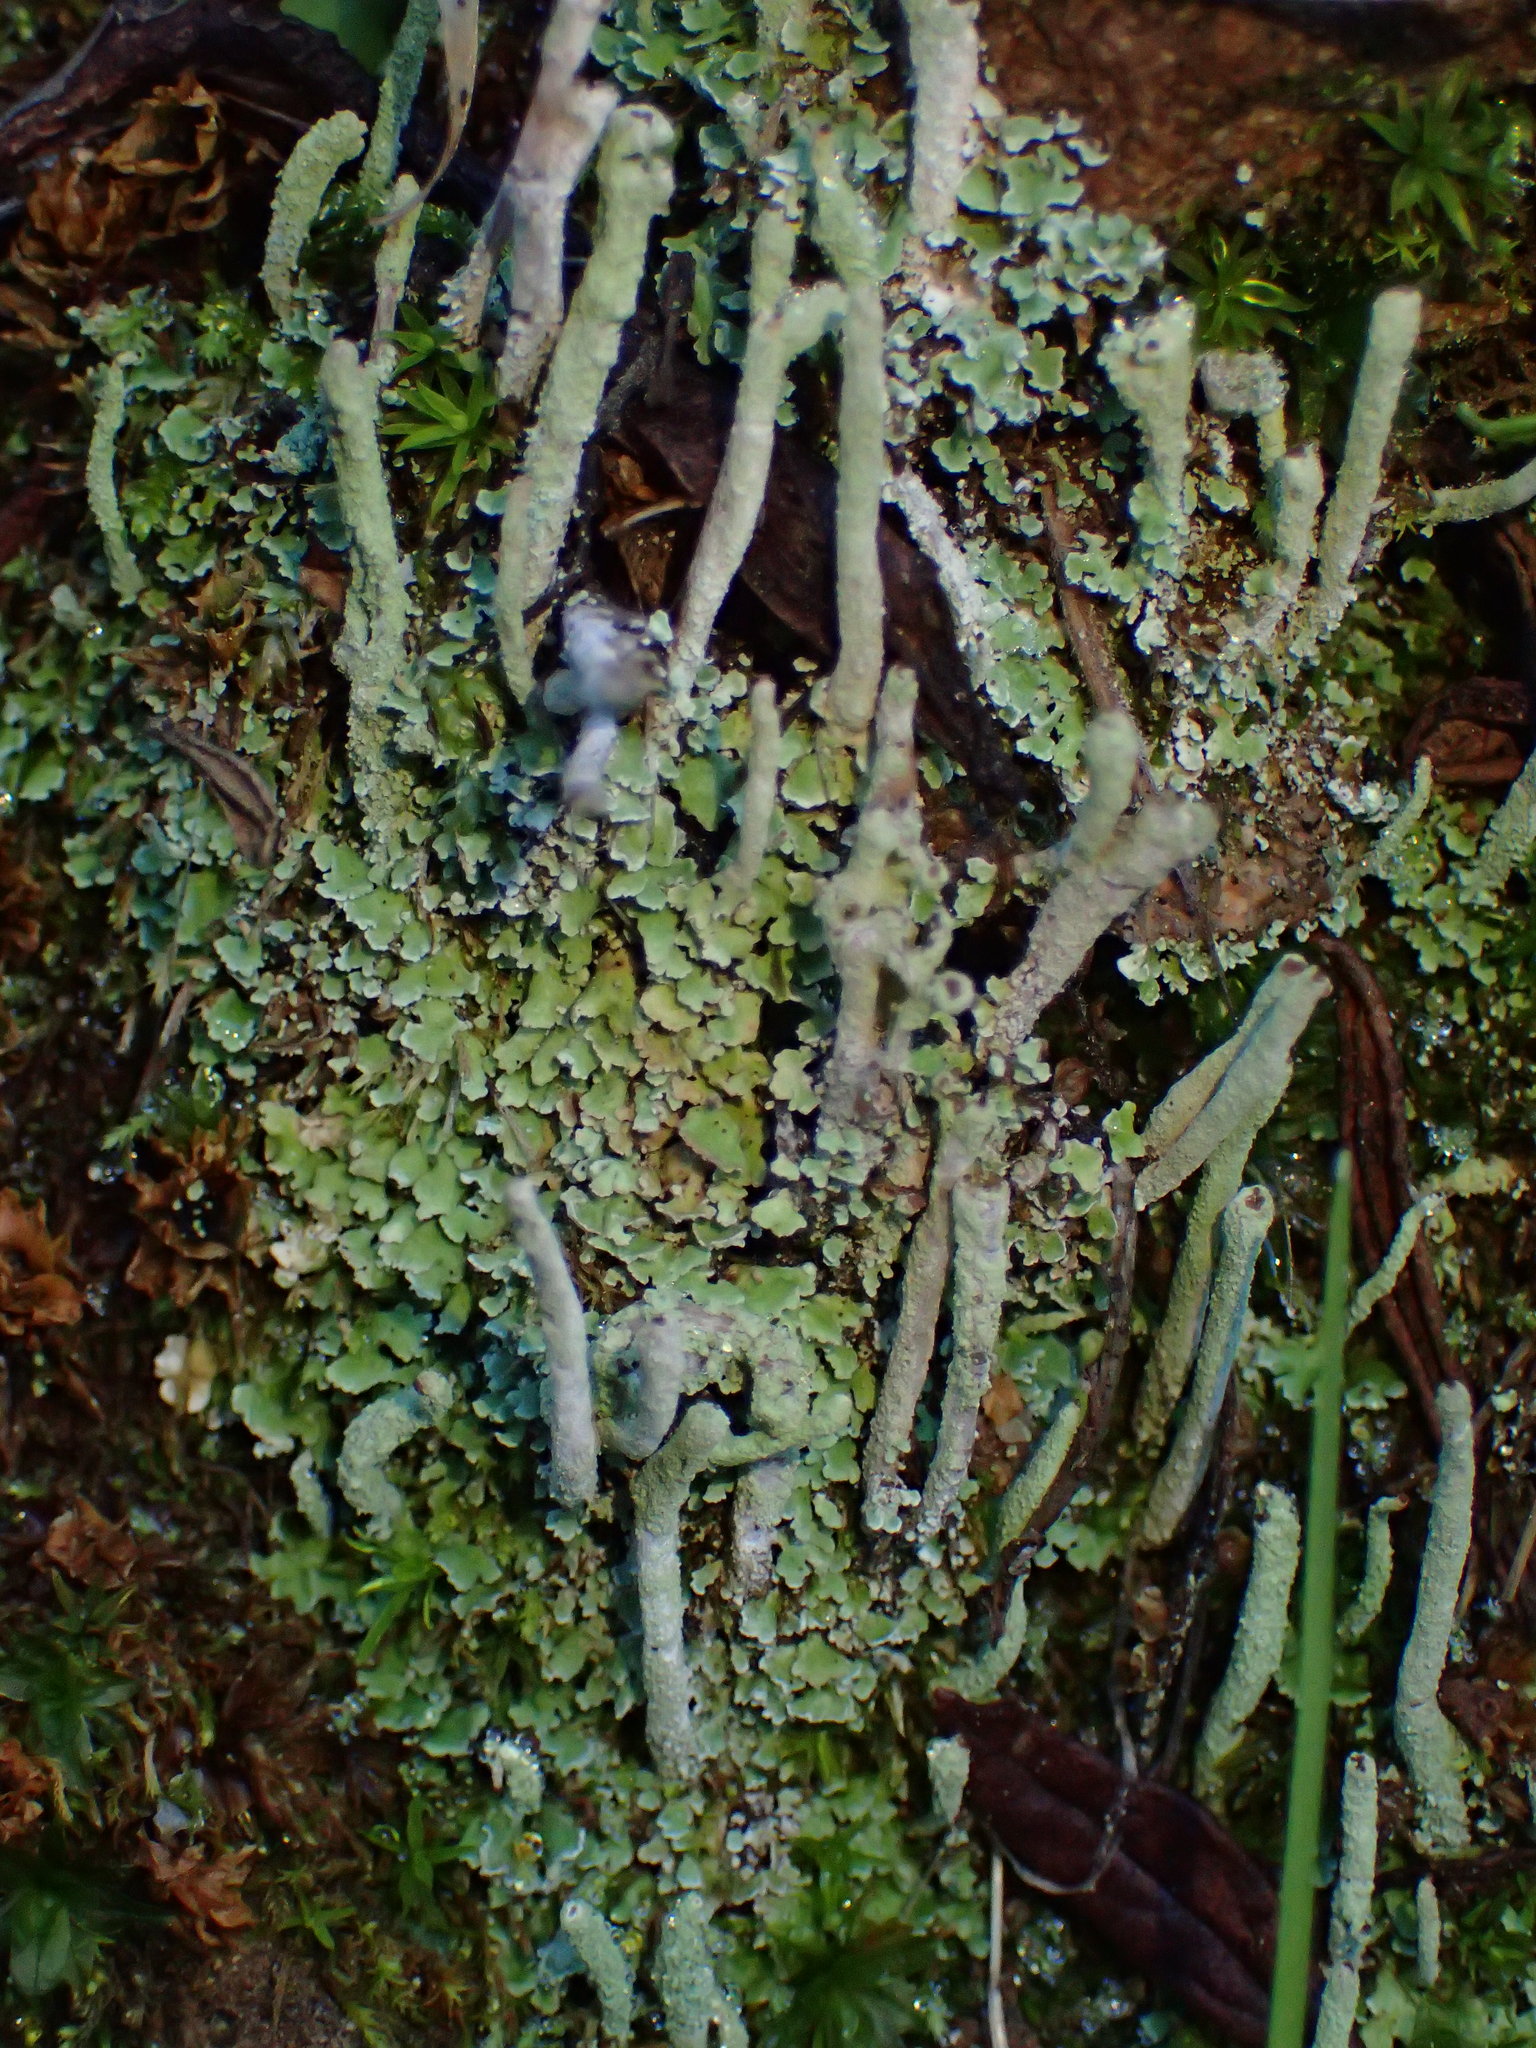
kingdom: Fungi
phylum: Ascomycota
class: Lecanoromycetes
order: Lecanorales
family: Cladoniaceae
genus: Cladonia
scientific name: Cladonia coniocraea
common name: Common powderhorn
